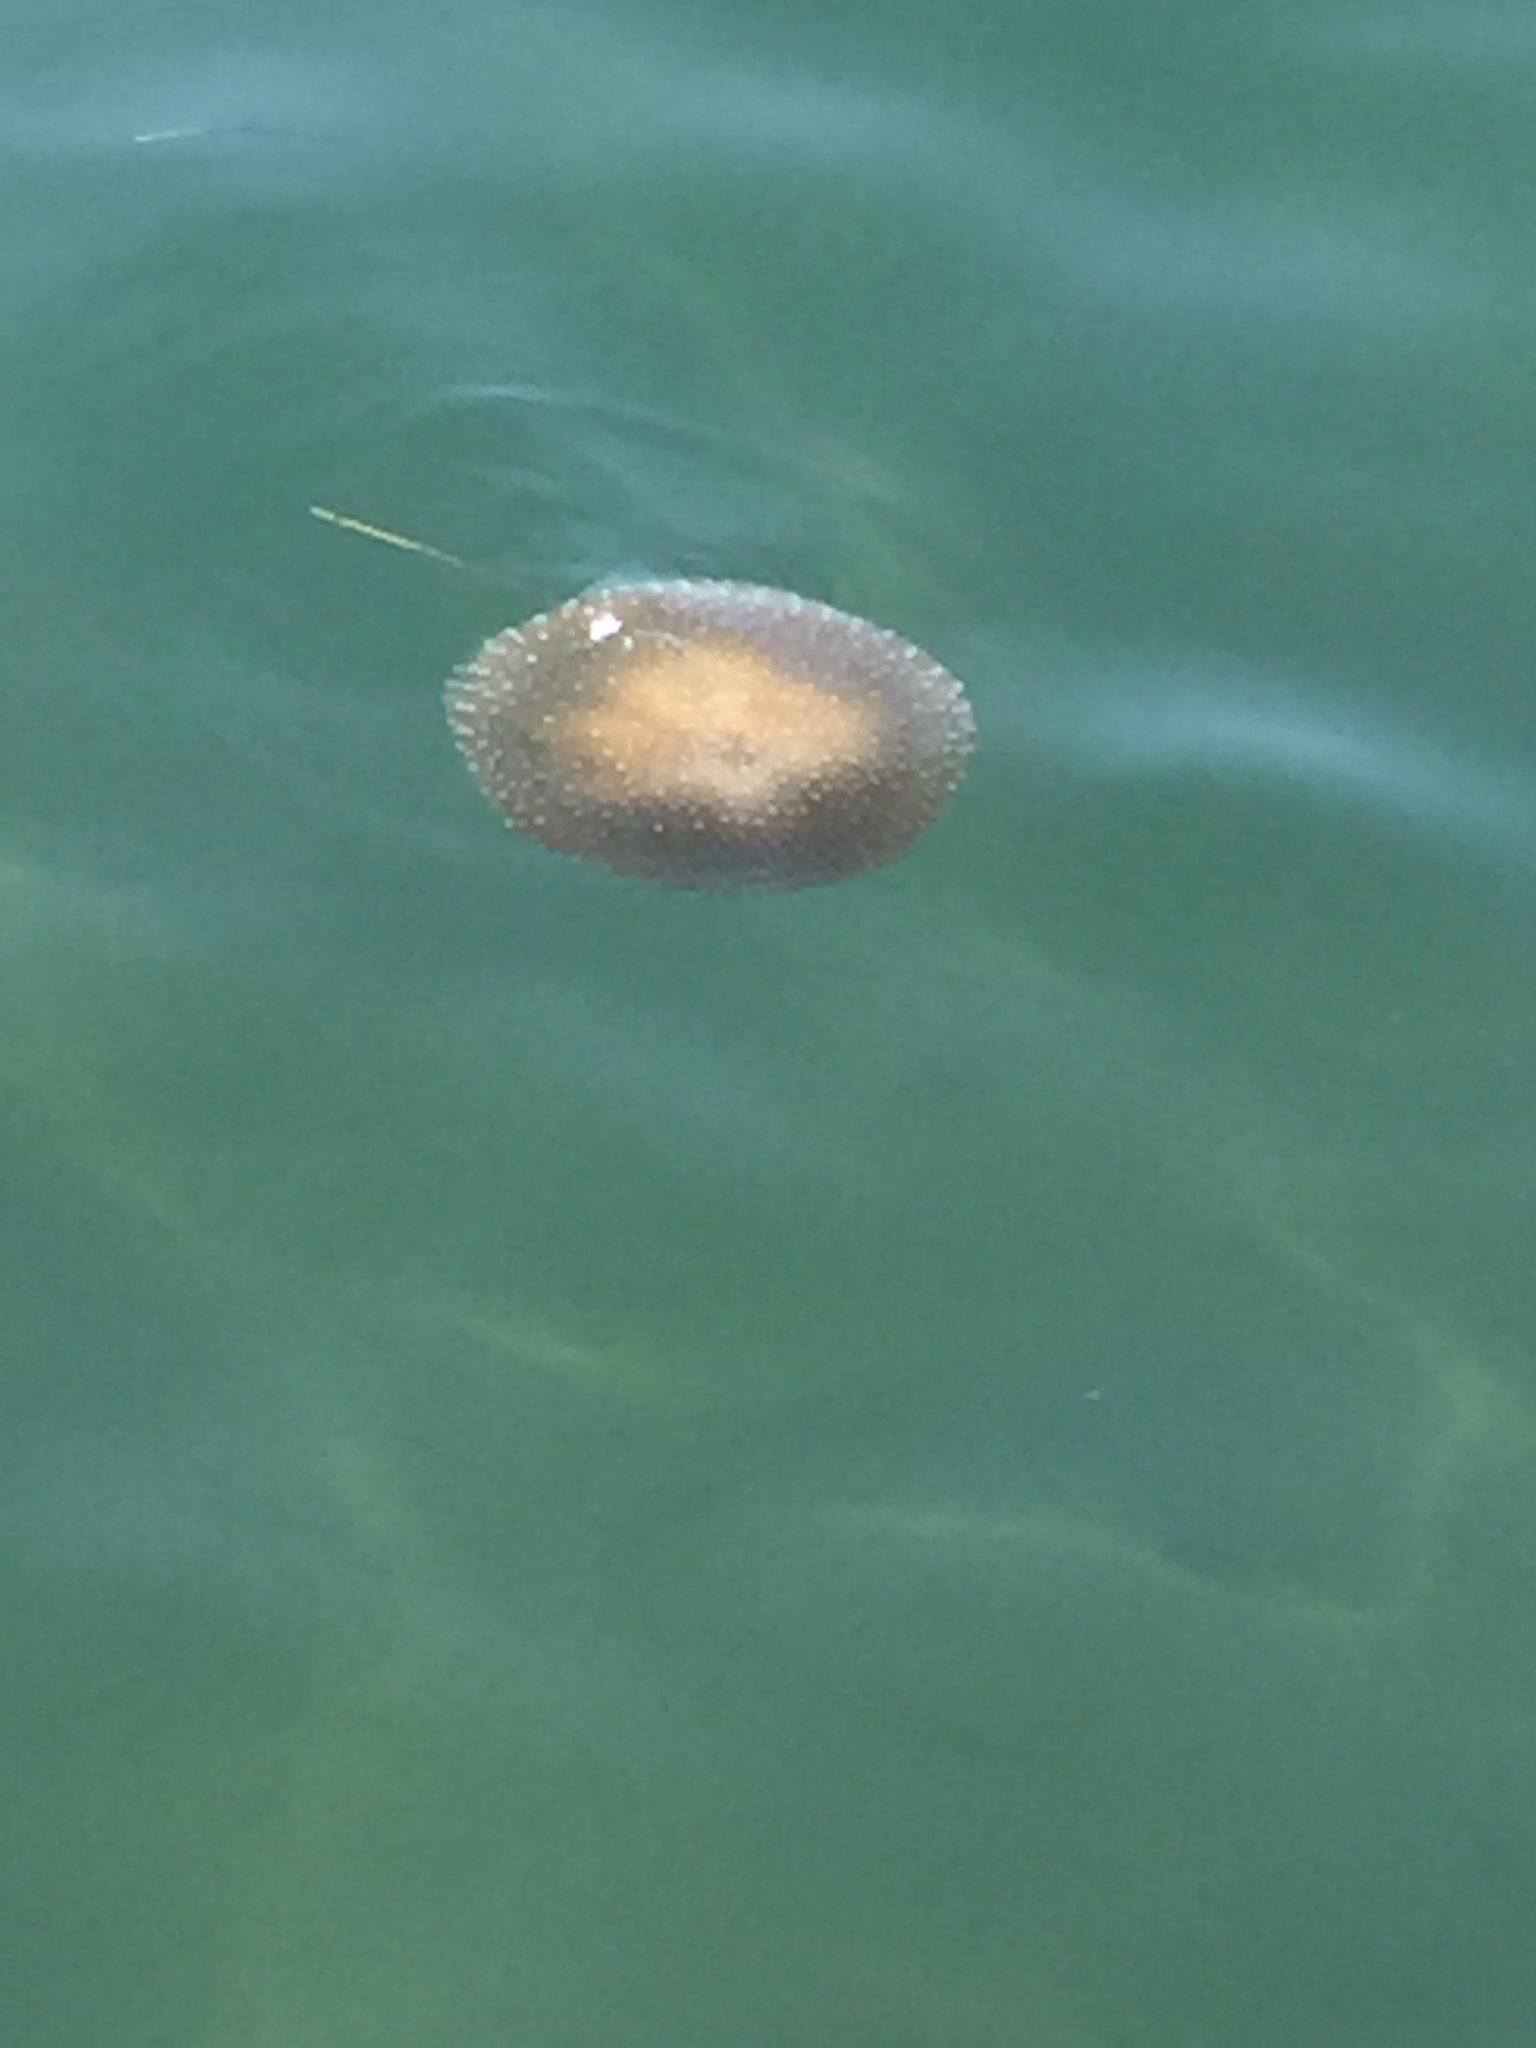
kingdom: Animalia
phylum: Cnidaria
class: Scyphozoa
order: Rhizostomeae
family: Mastigiidae
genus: Phyllorhiza
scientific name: Phyllorhiza punctata
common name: Australian spotted jellyfish
